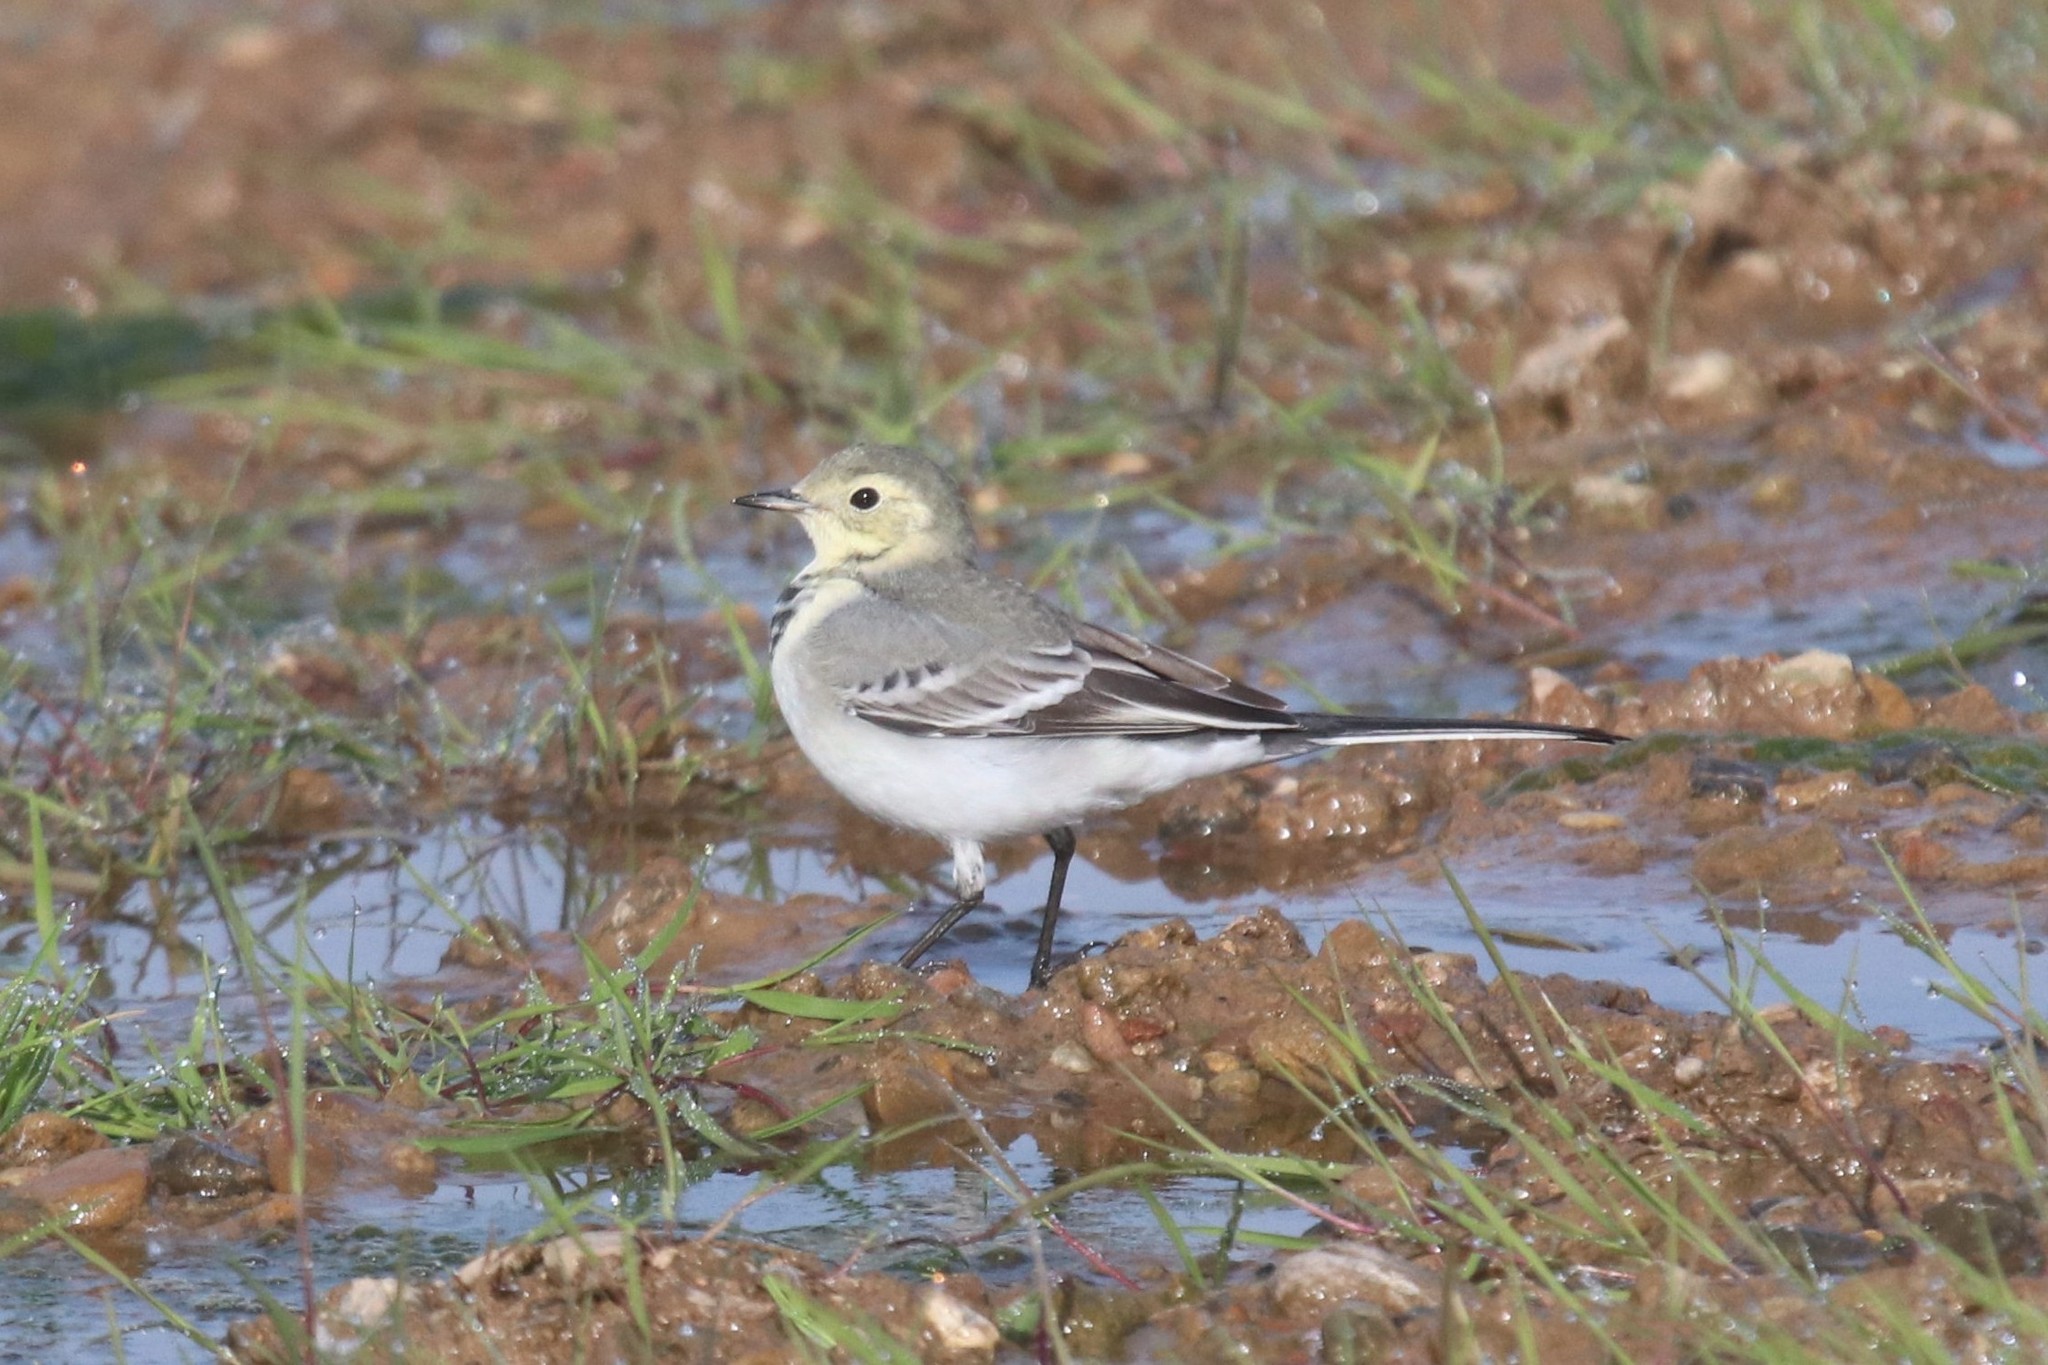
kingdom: Animalia
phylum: Chordata
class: Aves
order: Passeriformes
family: Motacillidae
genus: Motacilla
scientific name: Motacilla alba
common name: White wagtail
